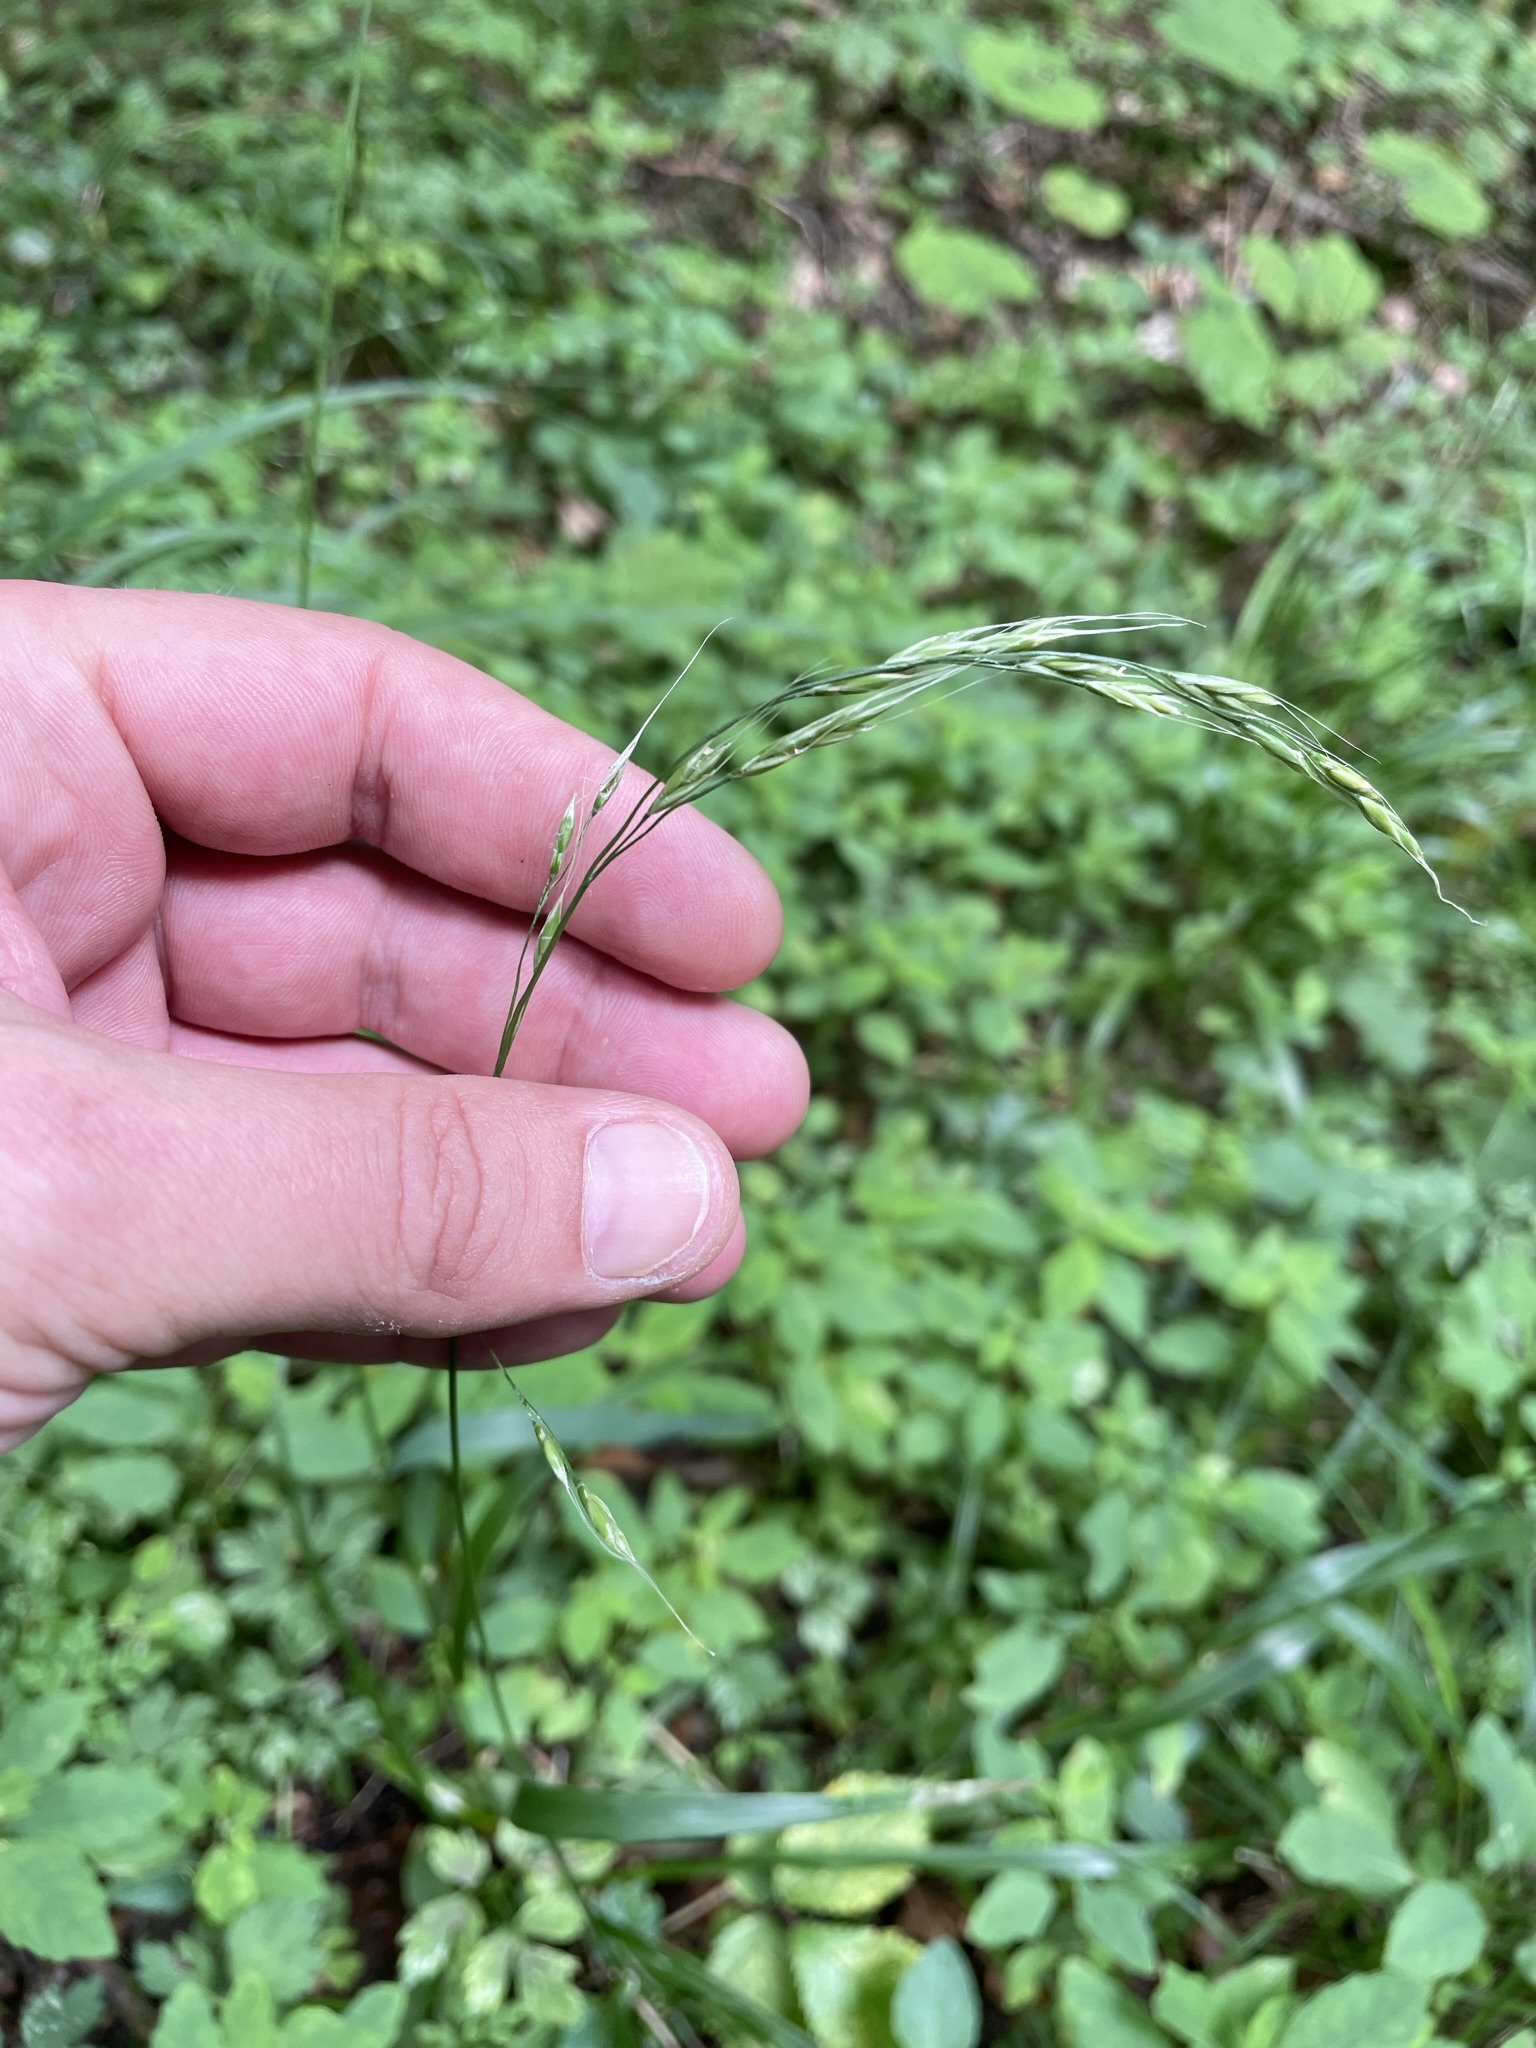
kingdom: Plantae
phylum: Tracheophyta
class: Liliopsida
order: Poales
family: Poaceae
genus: Lolium
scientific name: Lolium giganteum
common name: Giant fescue
